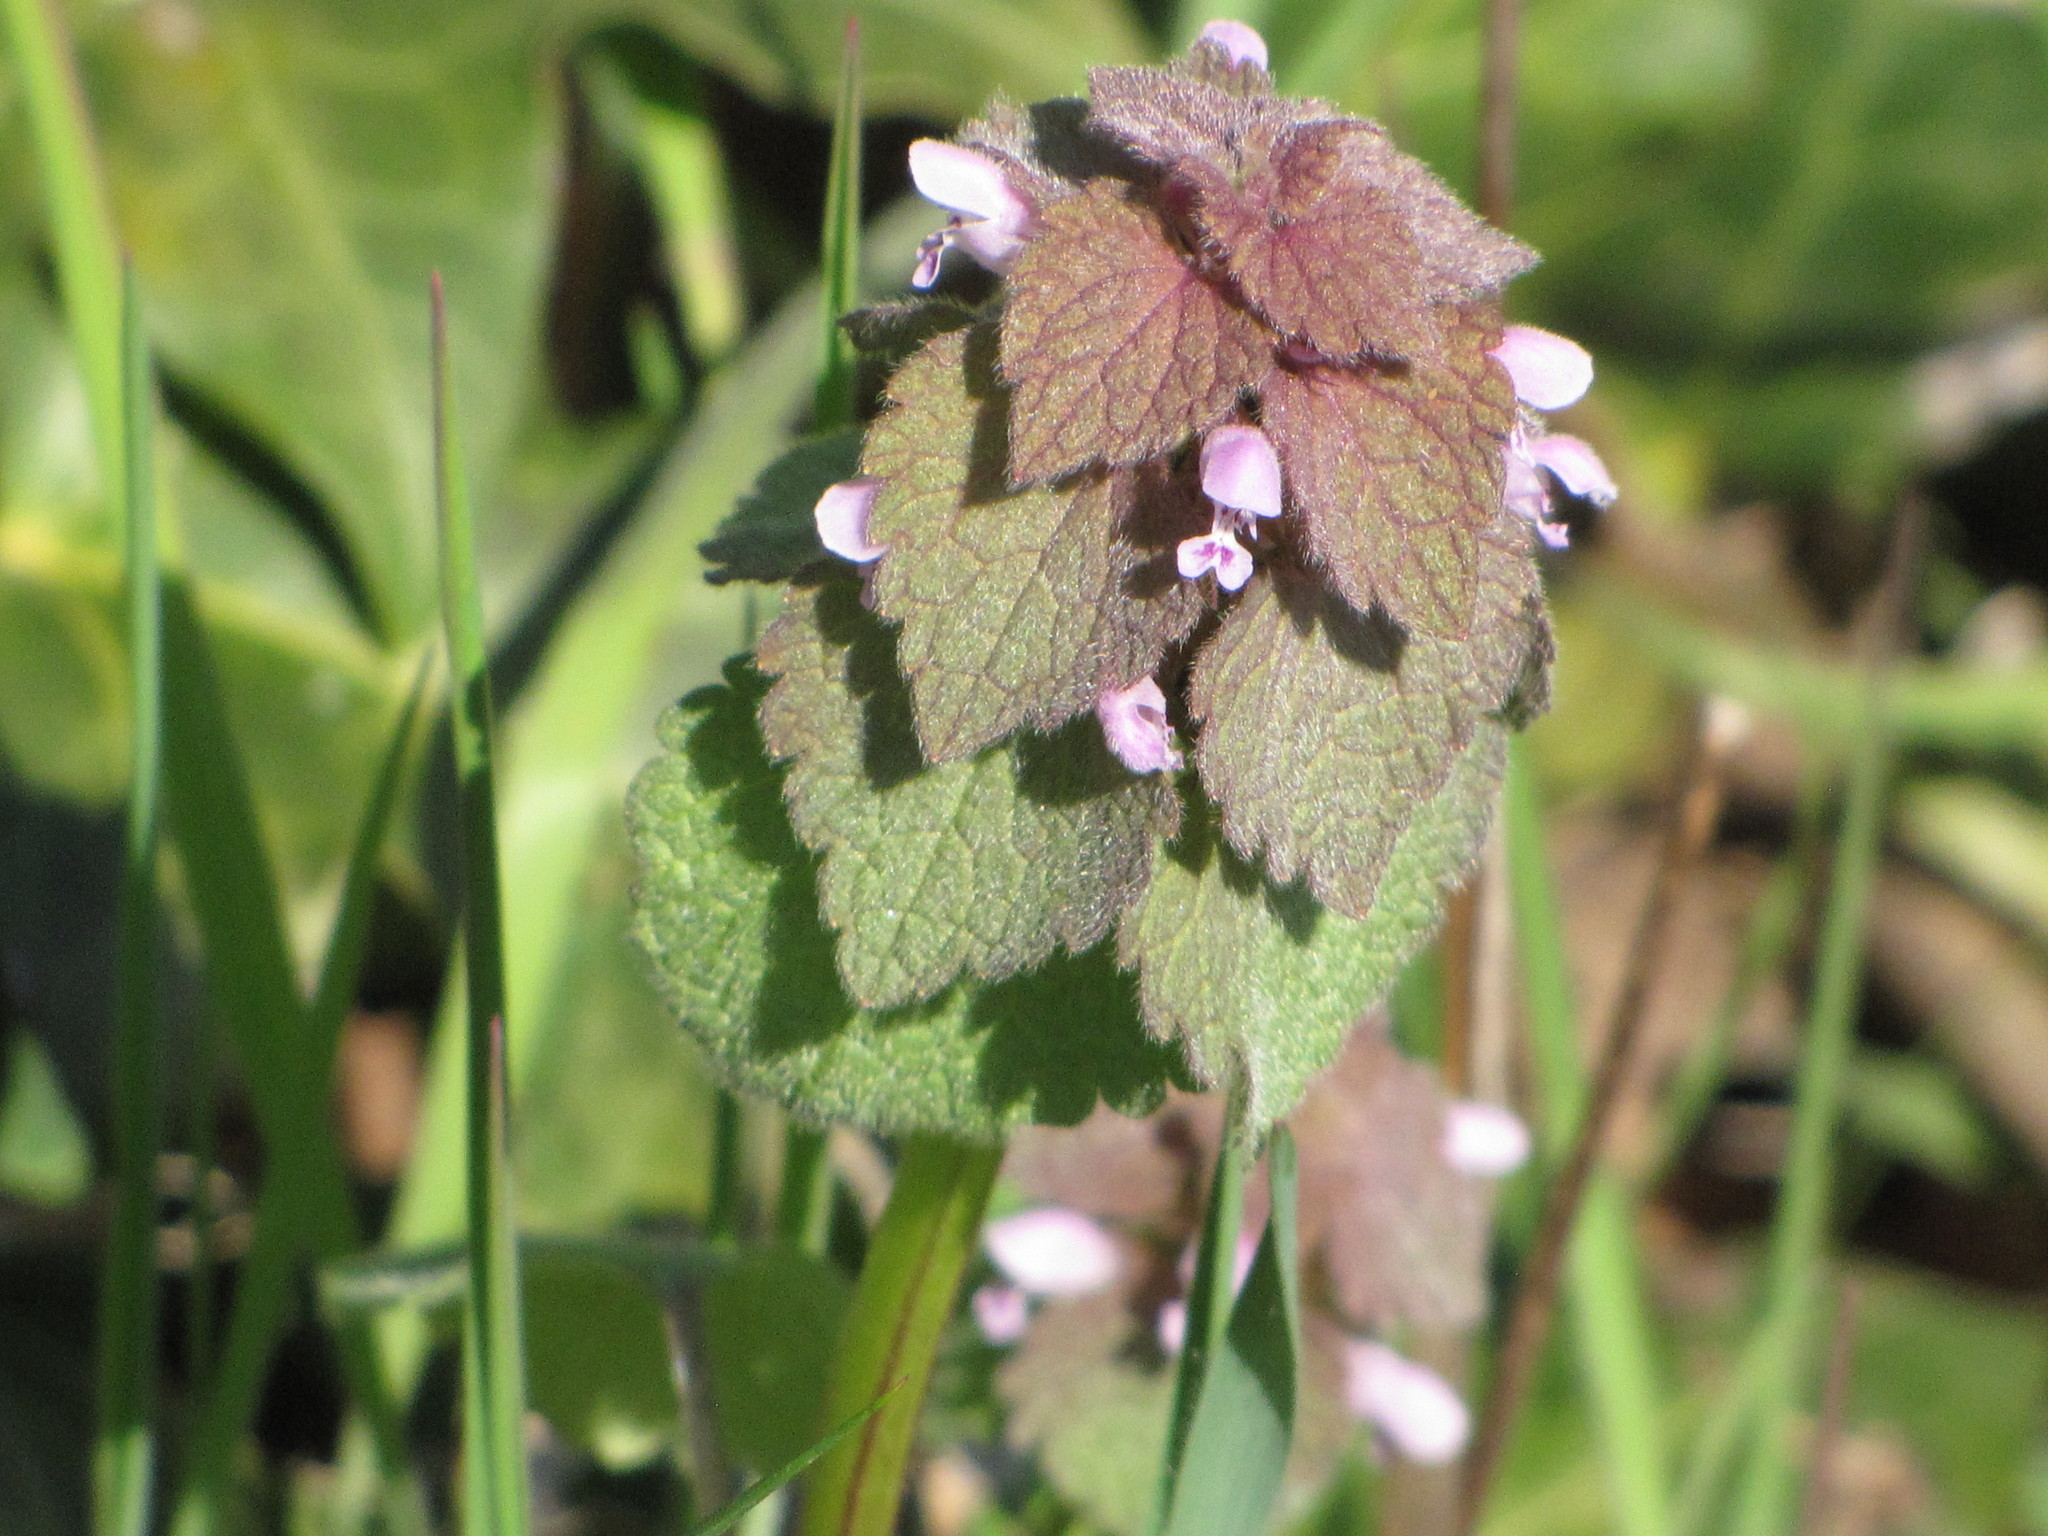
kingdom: Plantae
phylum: Tracheophyta
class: Magnoliopsida
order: Lamiales
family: Lamiaceae
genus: Lamium
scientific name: Lamium purpureum
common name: Red dead-nettle
